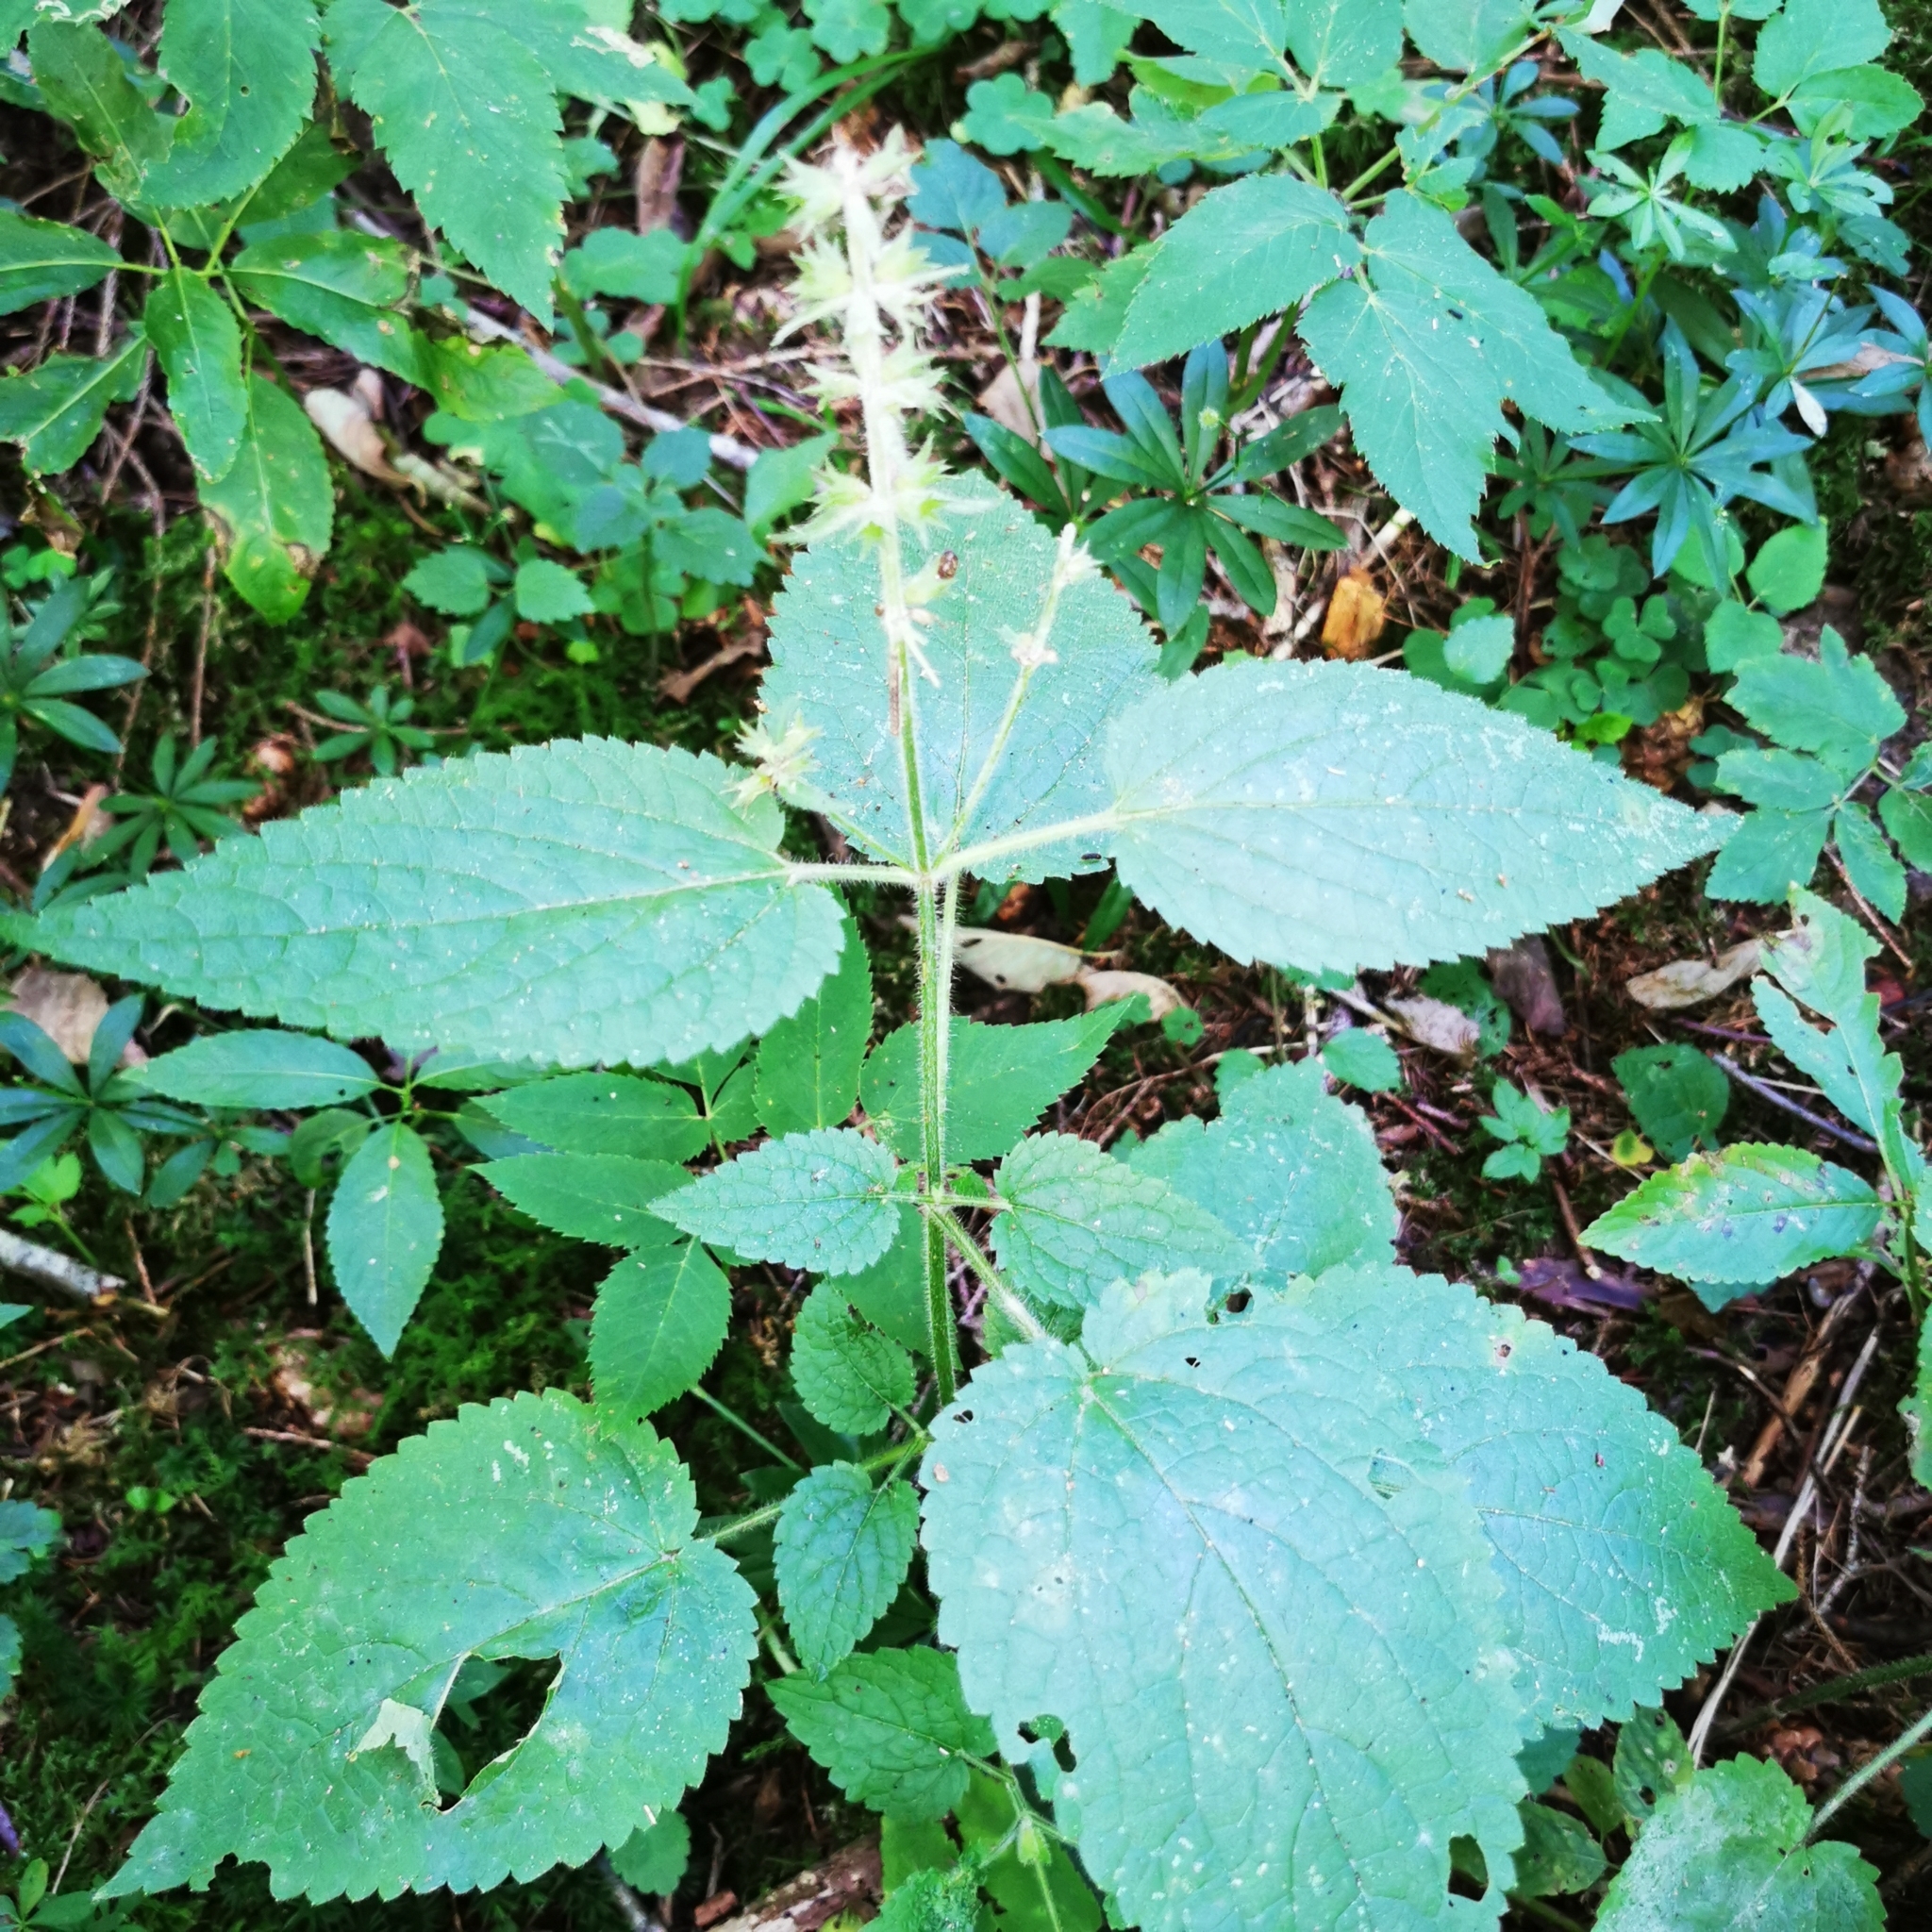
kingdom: Plantae
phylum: Tracheophyta
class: Magnoliopsida
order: Lamiales
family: Lamiaceae
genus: Stachys
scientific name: Stachys sylvatica
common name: Hedge woundwort
